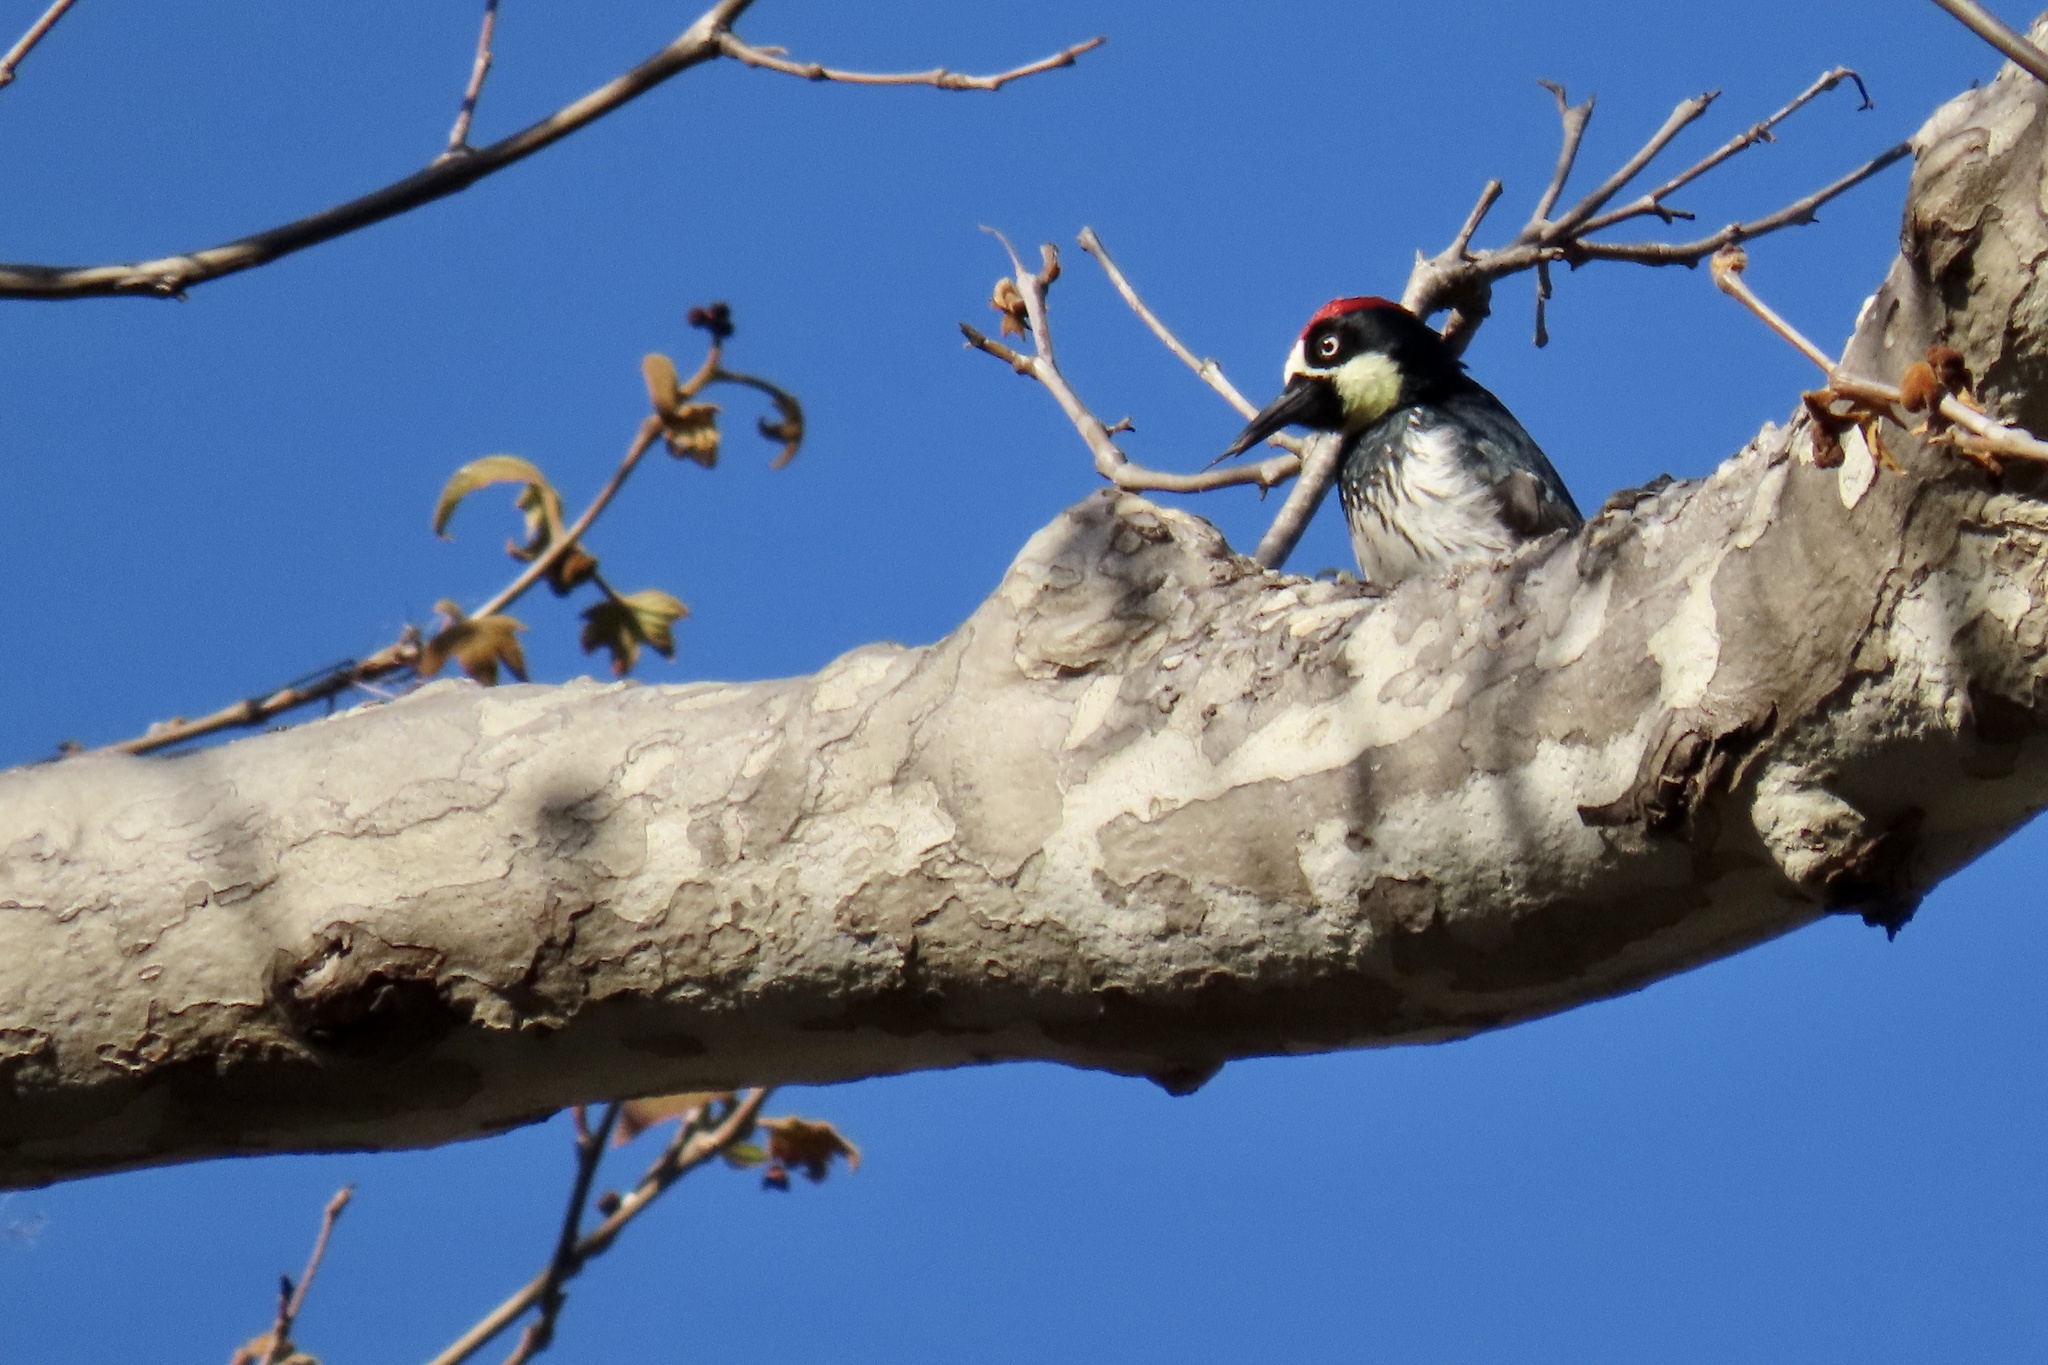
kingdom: Animalia
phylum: Chordata
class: Aves
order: Piciformes
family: Picidae
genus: Melanerpes
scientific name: Melanerpes formicivorus
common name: Acorn woodpecker
